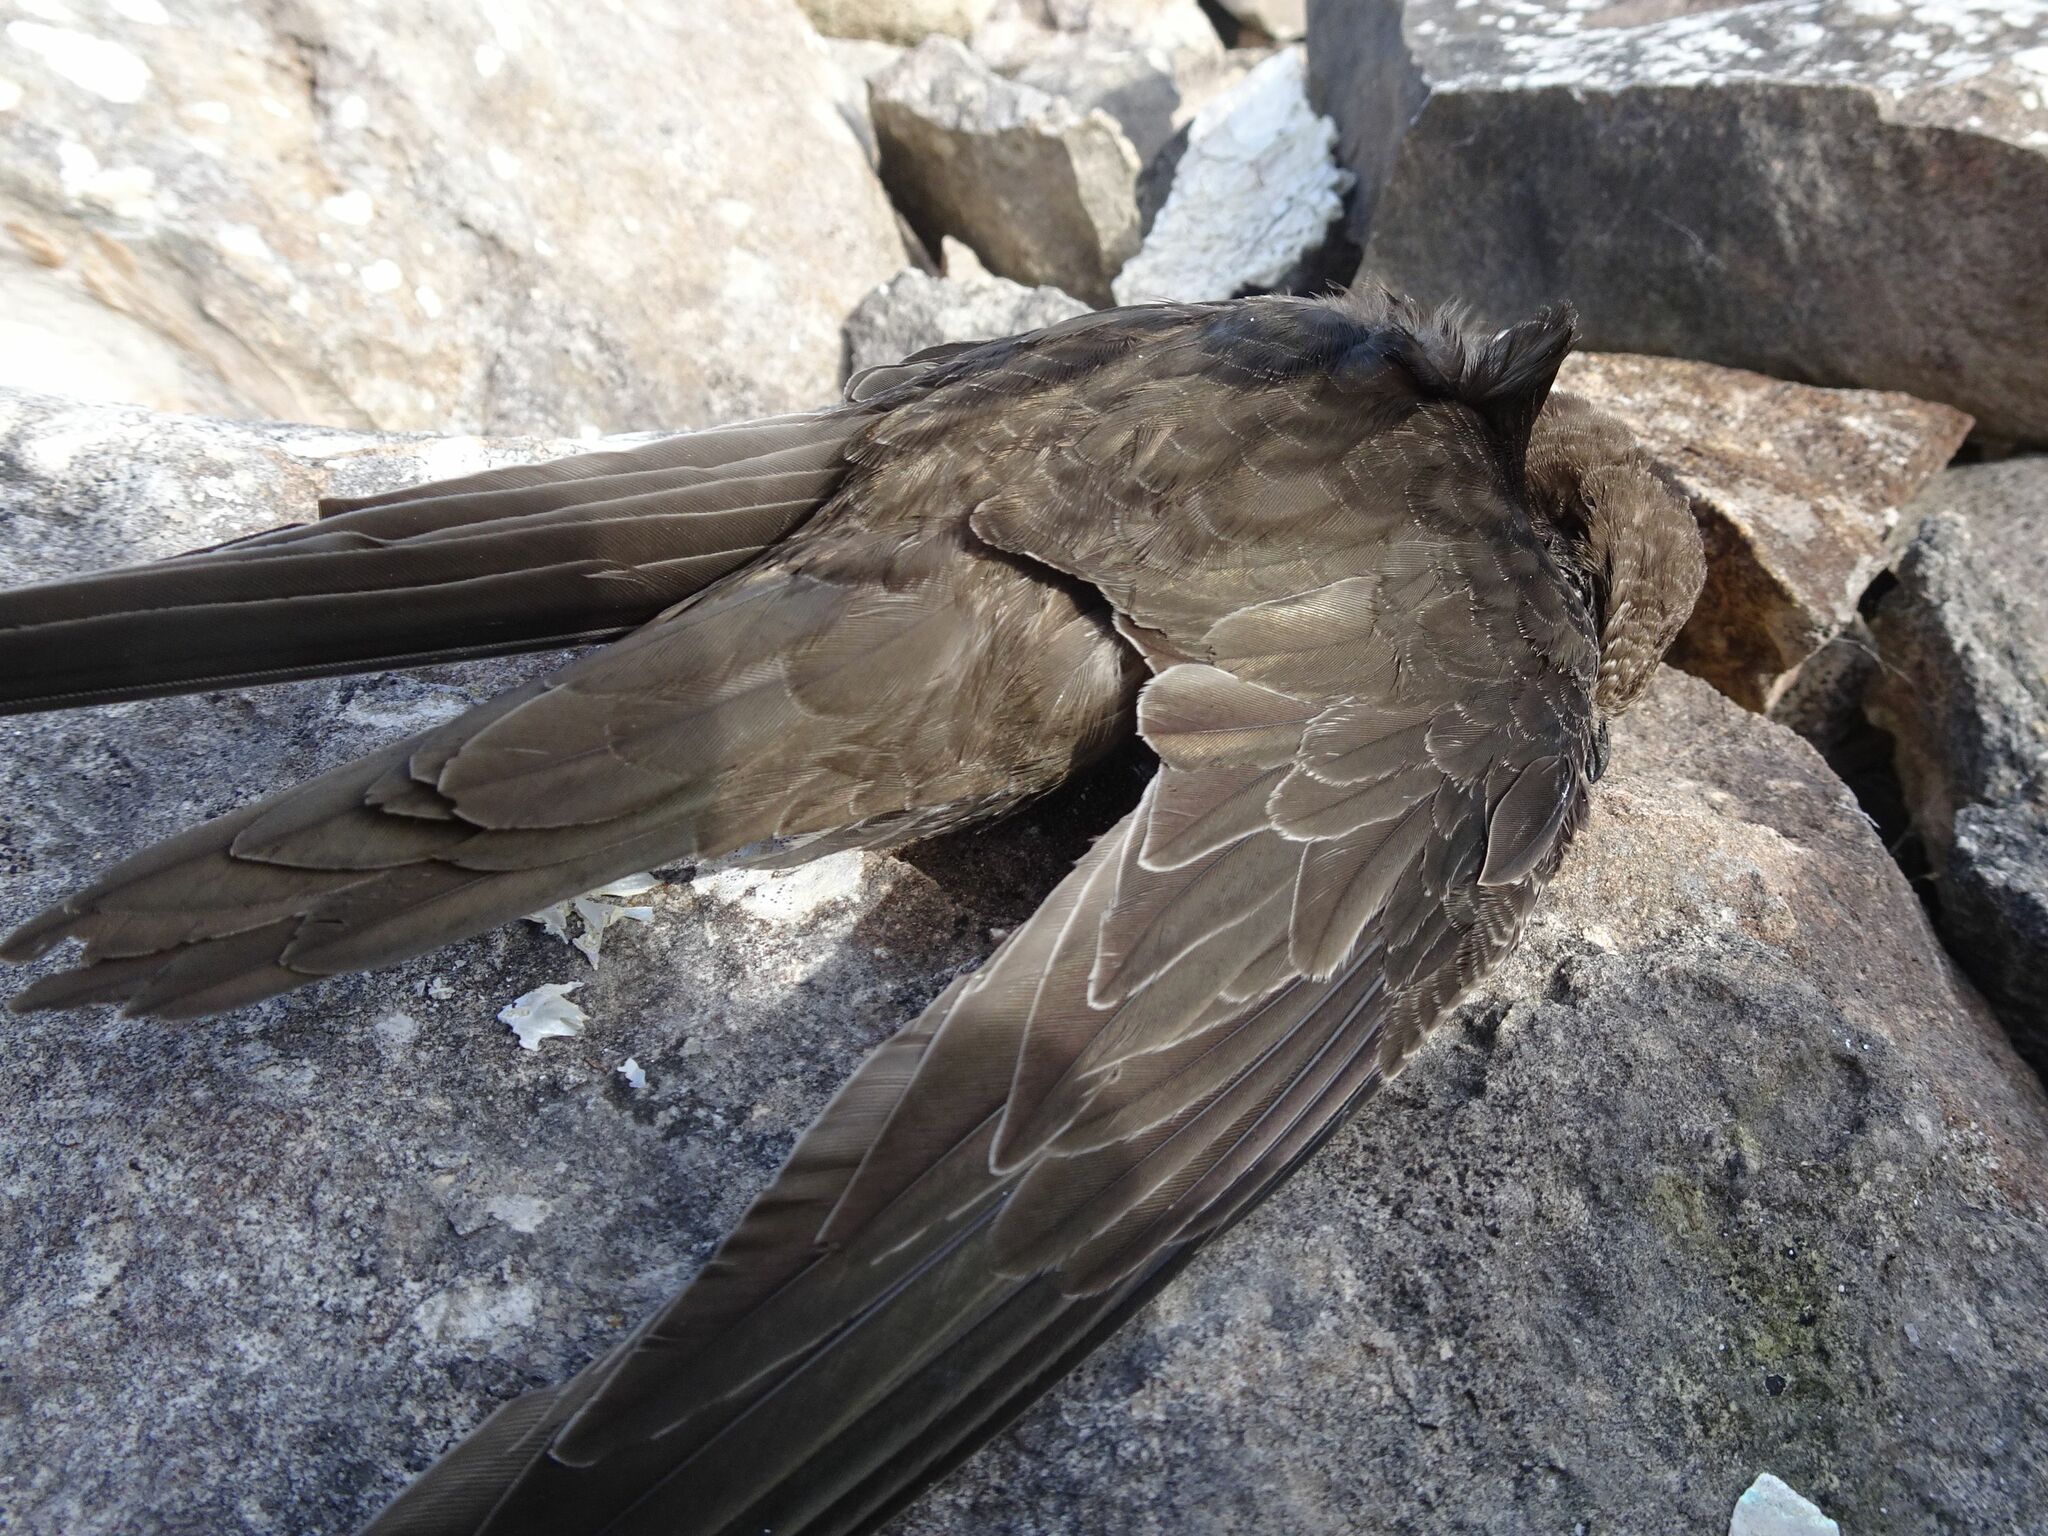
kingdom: Animalia
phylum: Chordata
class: Aves
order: Apodiformes
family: Apodidae
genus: Apus
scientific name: Apus apus
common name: Common swift
